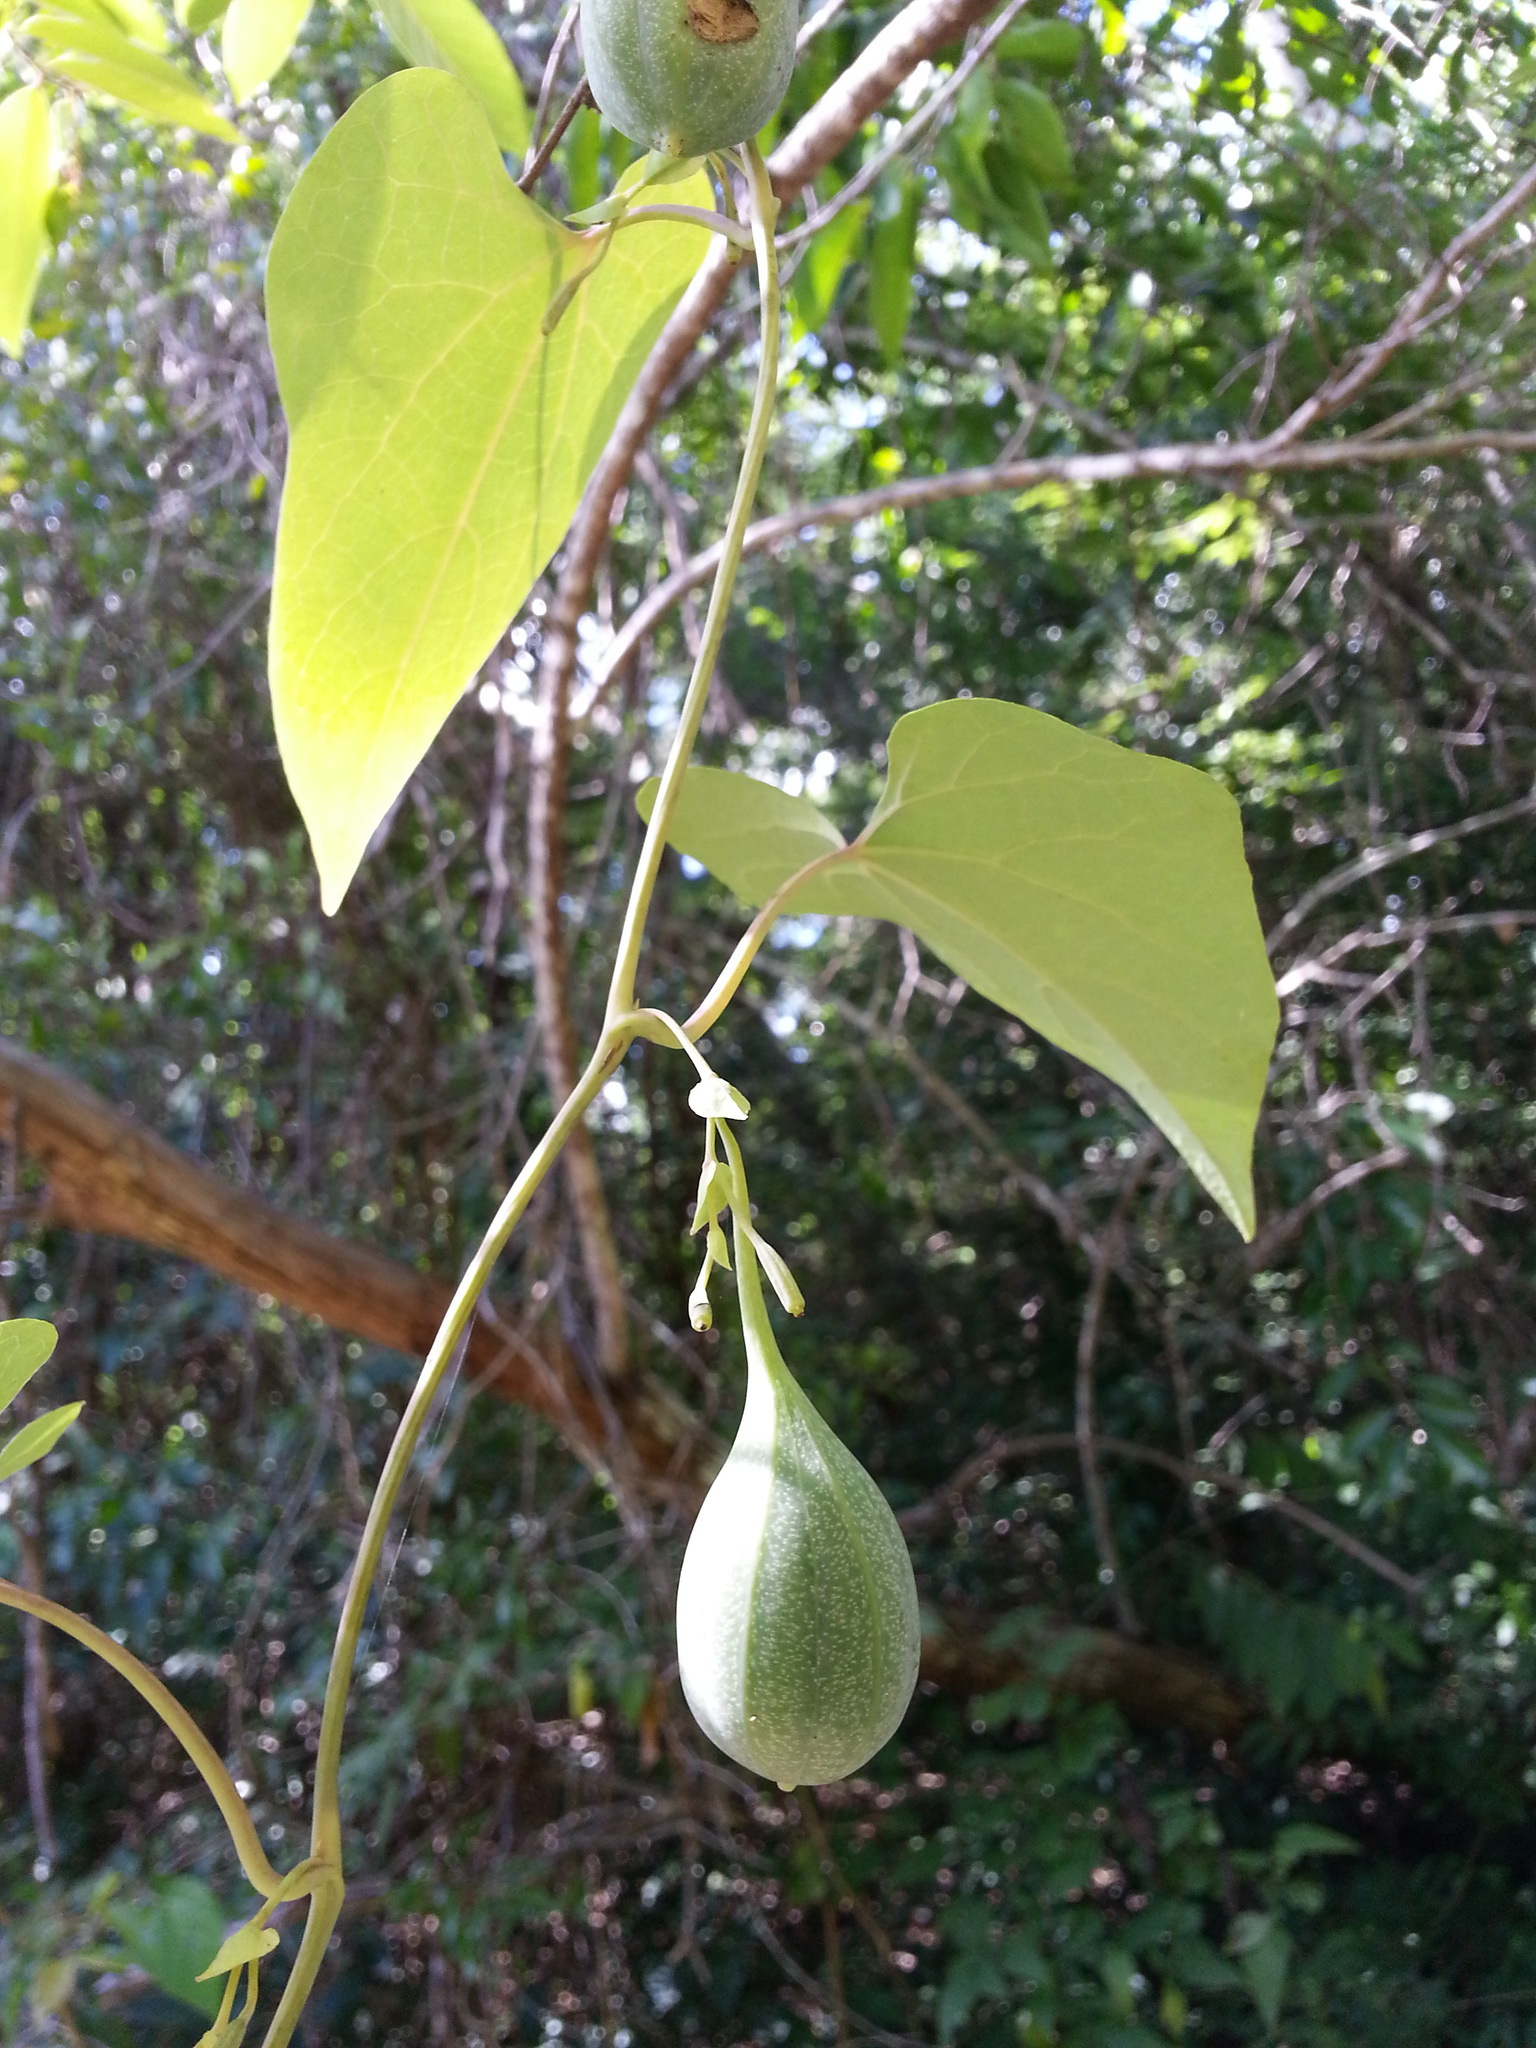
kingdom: Plantae
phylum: Tracheophyta
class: Magnoliopsida
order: Piperales
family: Aristolochiaceae
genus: Aristolochia
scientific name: Aristolochia albida
